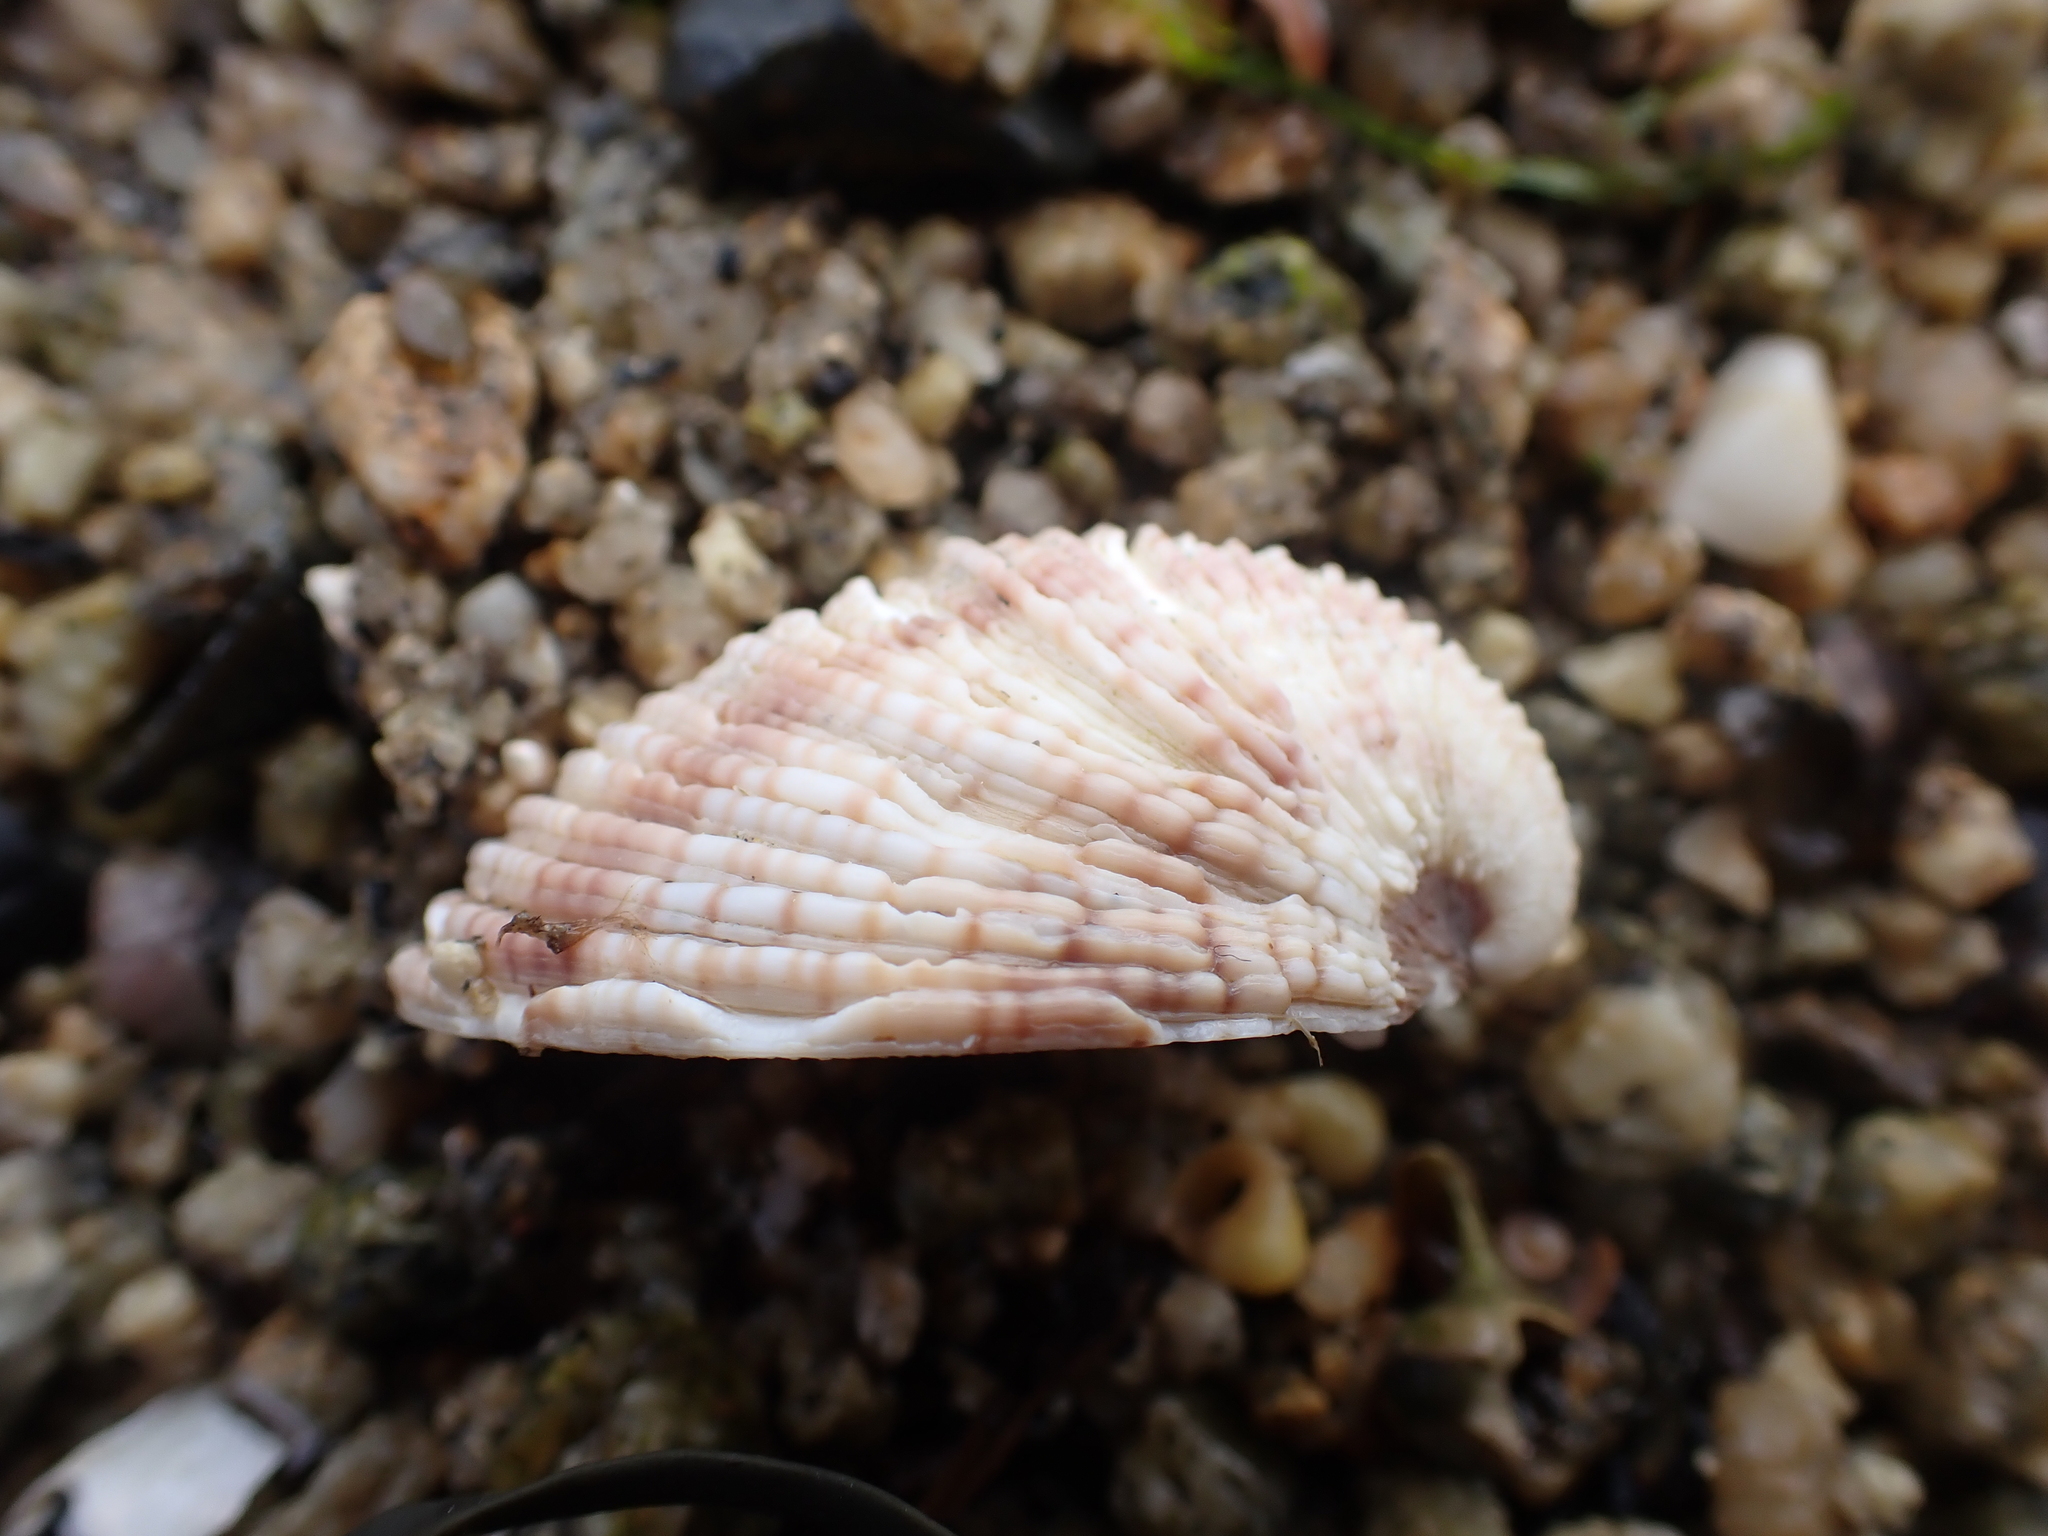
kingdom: Animalia
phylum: Mollusca
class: Bivalvia
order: Venerida
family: Veneridae
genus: Venus
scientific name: Venus verrucosa
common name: Warty venus
